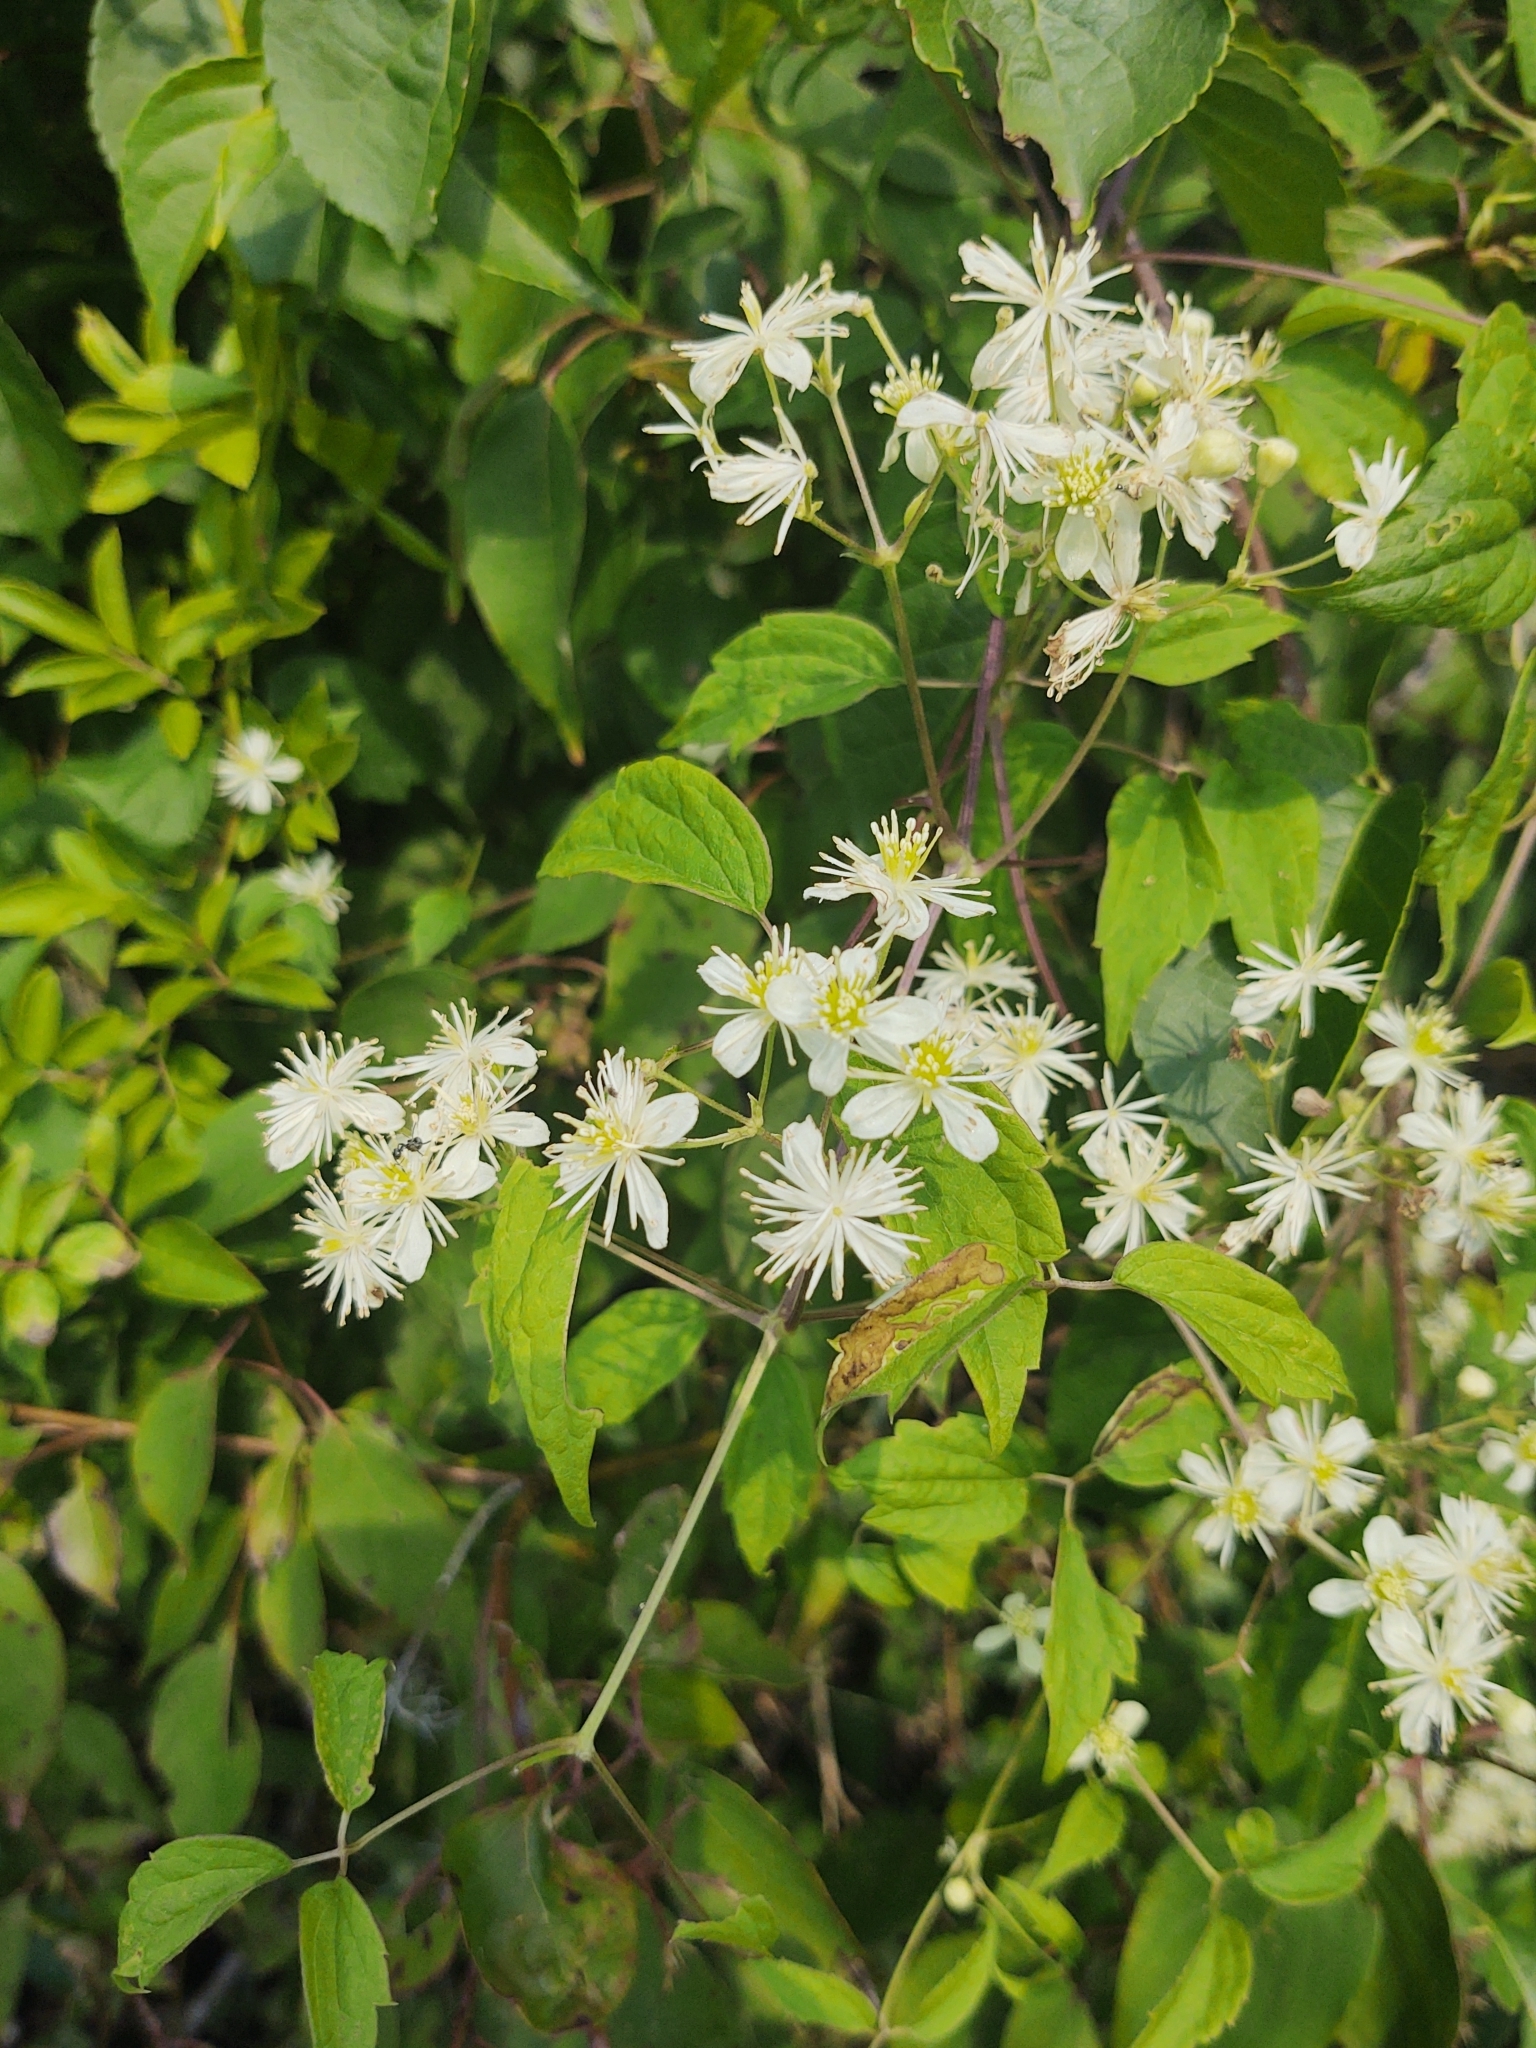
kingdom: Plantae
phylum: Tracheophyta
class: Magnoliopsida
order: Ranunculales
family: Ranunculaceae
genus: Clematis
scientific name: Clematis virginiana
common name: Virgin's-bower
